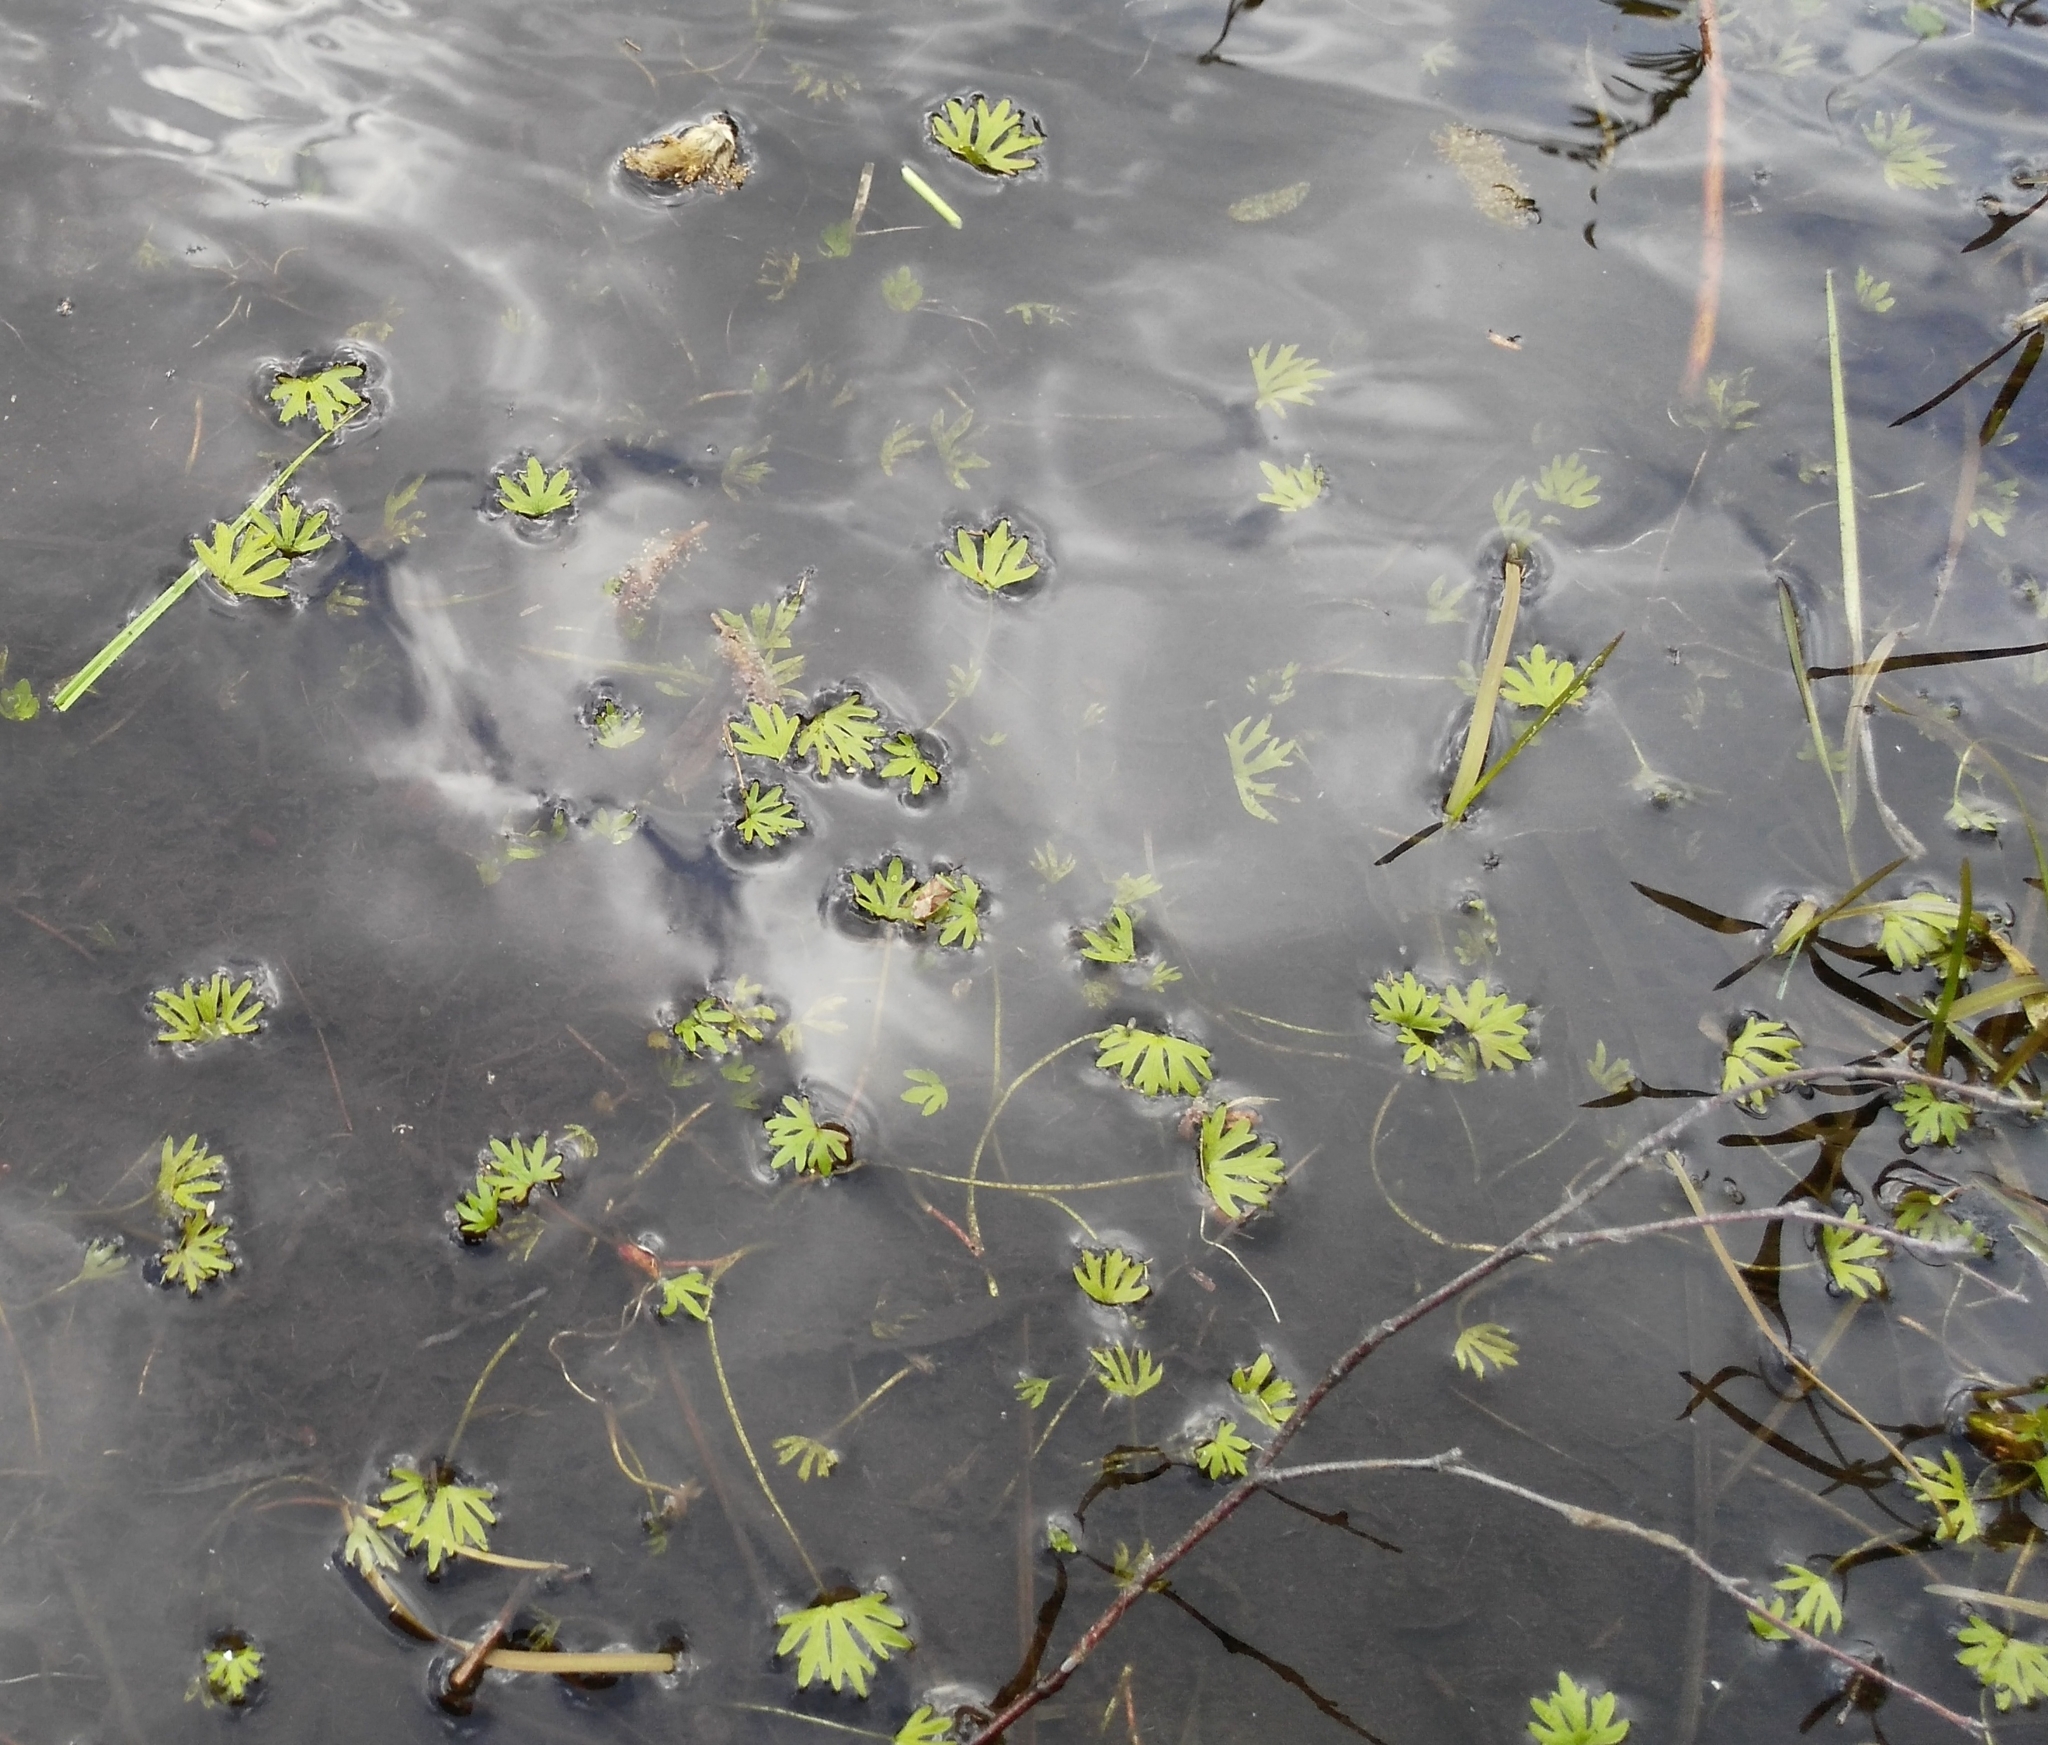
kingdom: Plantae
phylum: Tracheophyta
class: Magnoliopsida
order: Ranunculales
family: Ranunculaceae
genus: Ranunculus
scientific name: Ranunculus gmelinii
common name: Gmelin's buttercup
